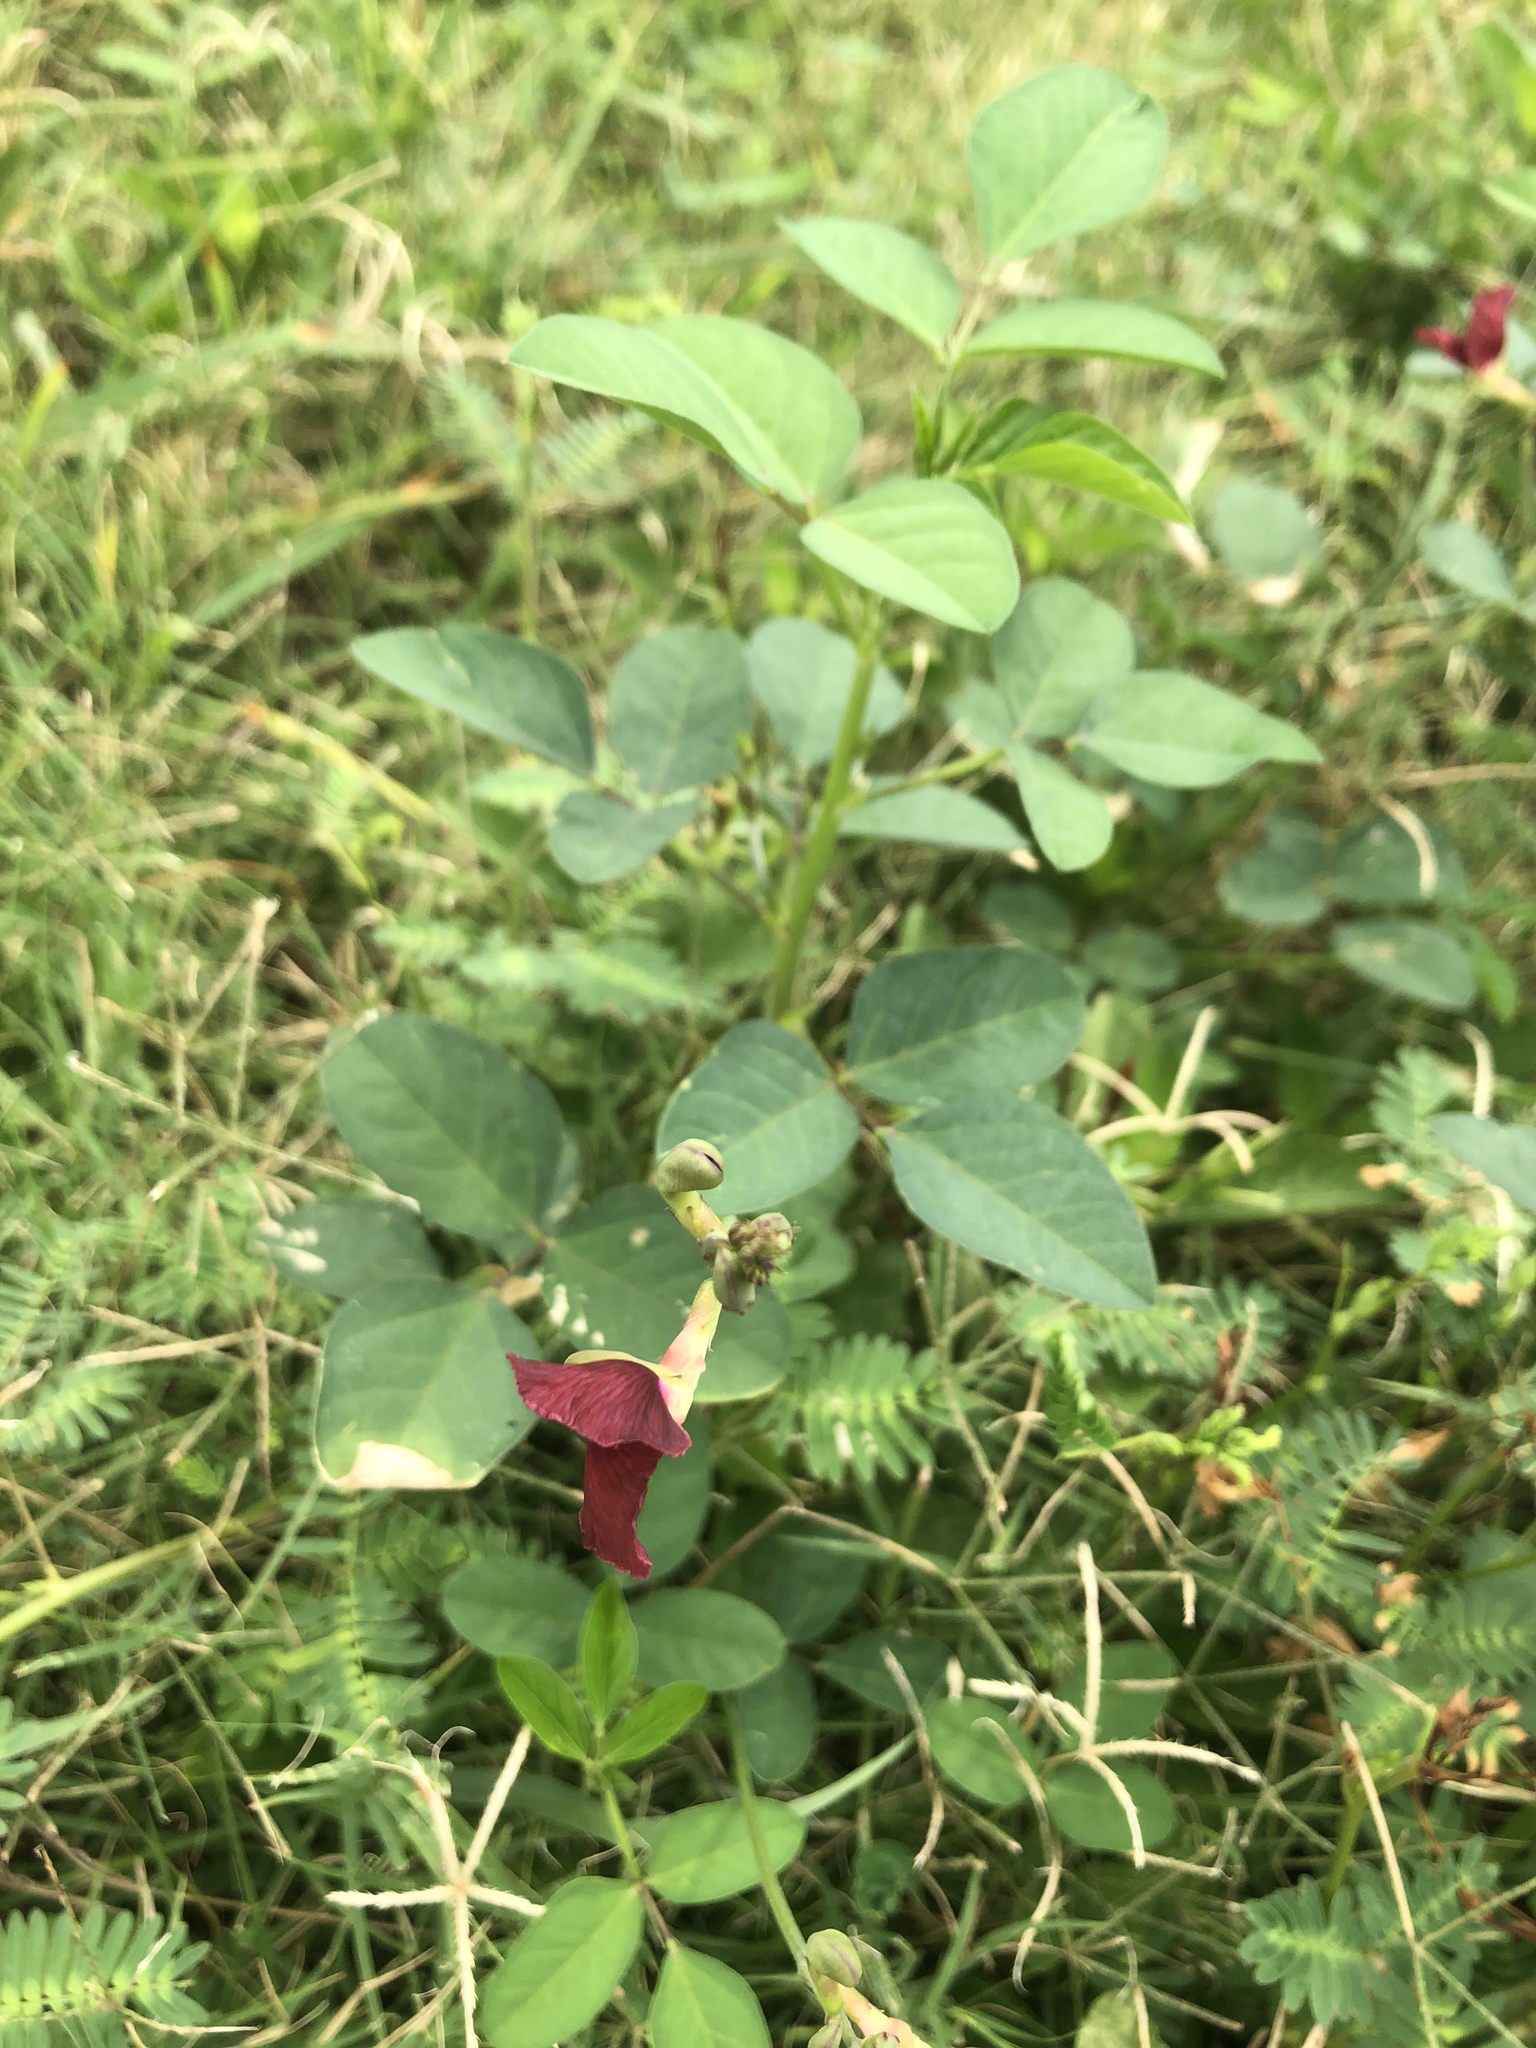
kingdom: Plantae
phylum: Tracheophyta
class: Magnoliopsida
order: Fabales
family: Fabaceae
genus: Macroptilium
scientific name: Macroptilium lathyroides
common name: Wild bushbean
